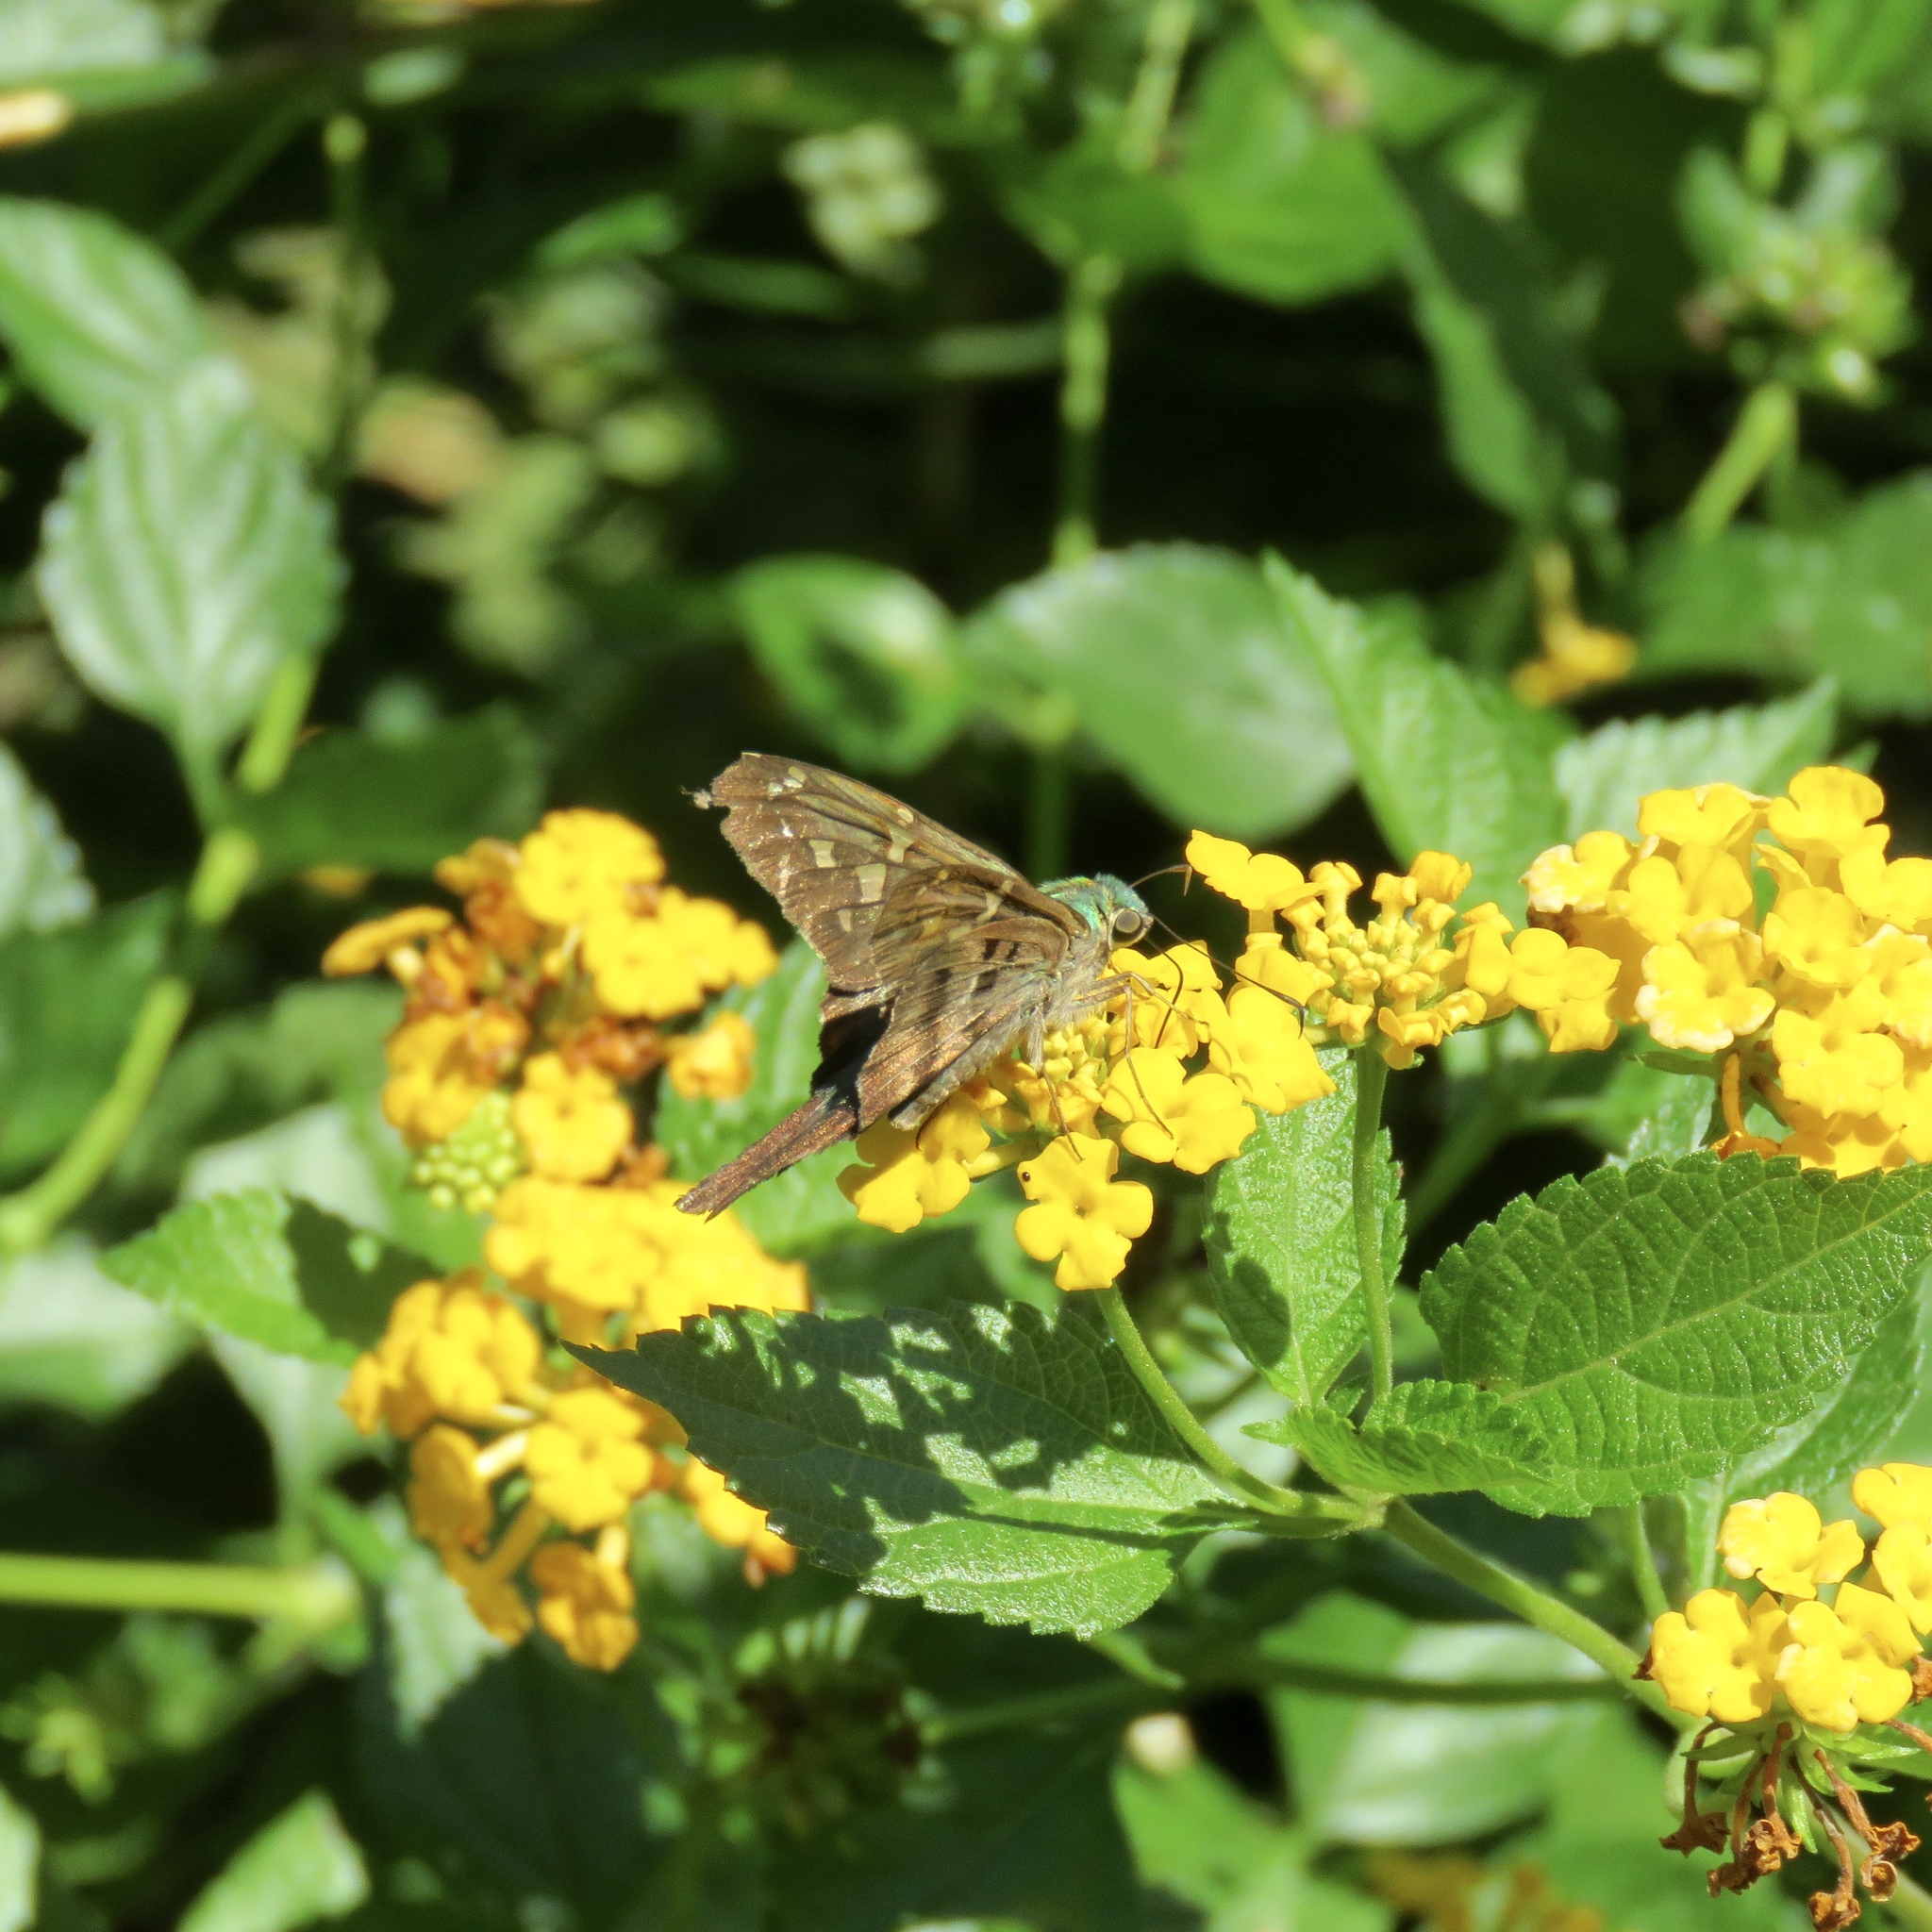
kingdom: Animalia
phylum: Arthropoda
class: Insecta
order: Lepidoptera
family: Hesperiidae
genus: Thorybes
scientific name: Thorybes
